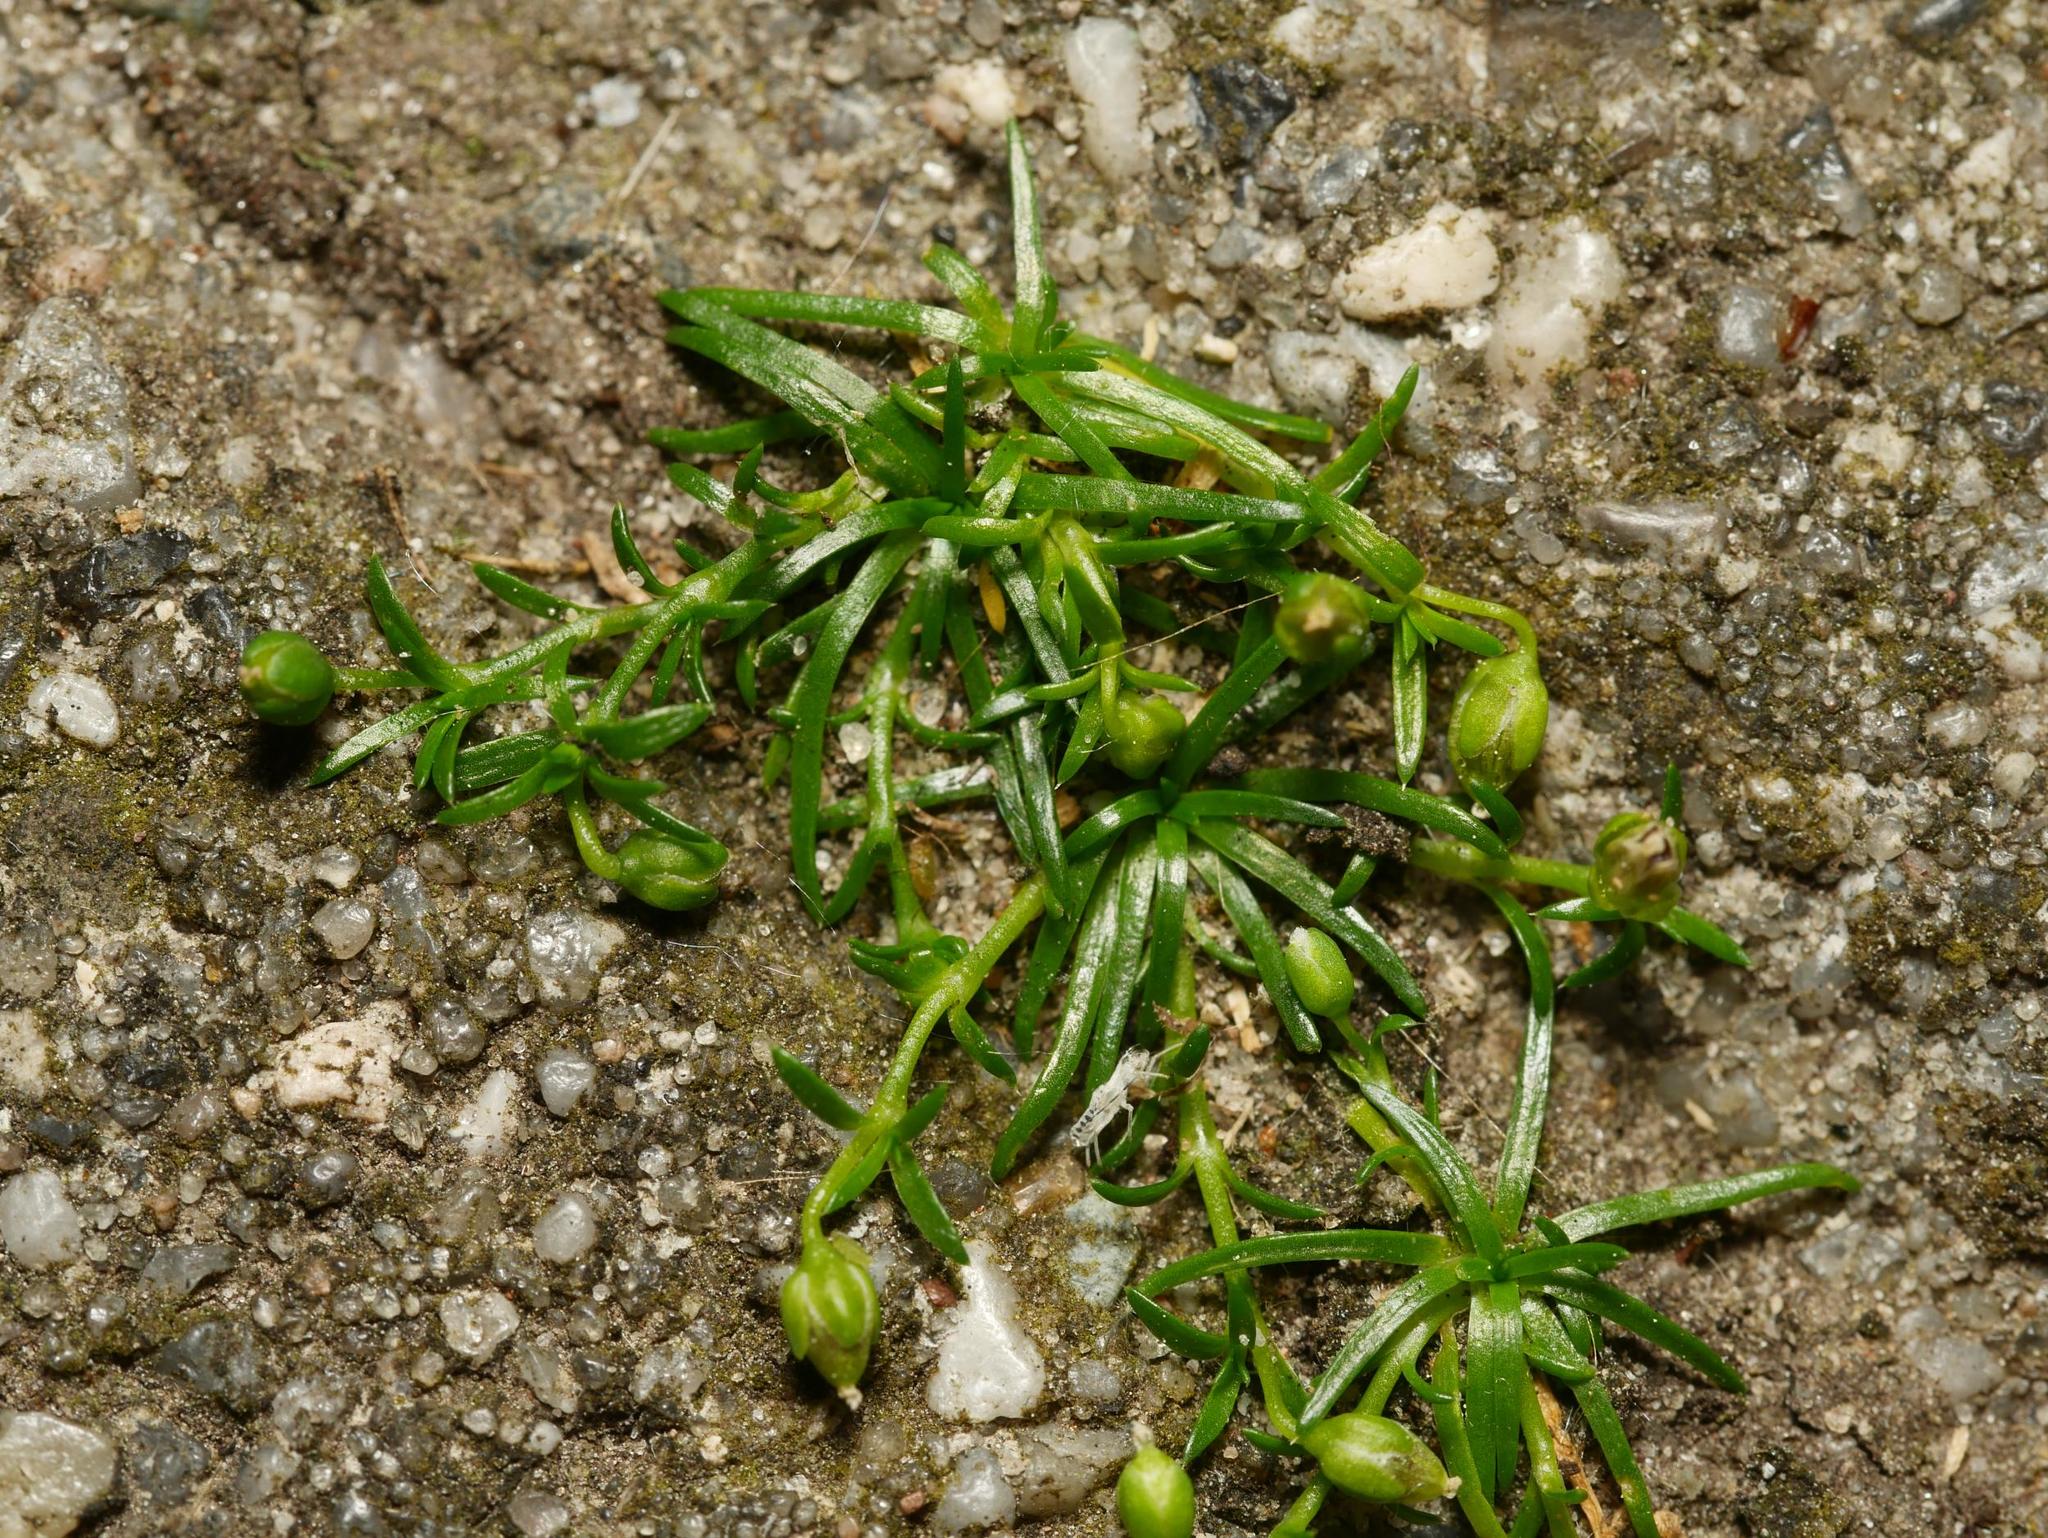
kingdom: Plantae
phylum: Tracheophyta
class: Magnoliopsida
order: Caryophyllales
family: Caryophyllaceae
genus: Sagina
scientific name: Sagina procumbens
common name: Procumbent pearlwort
